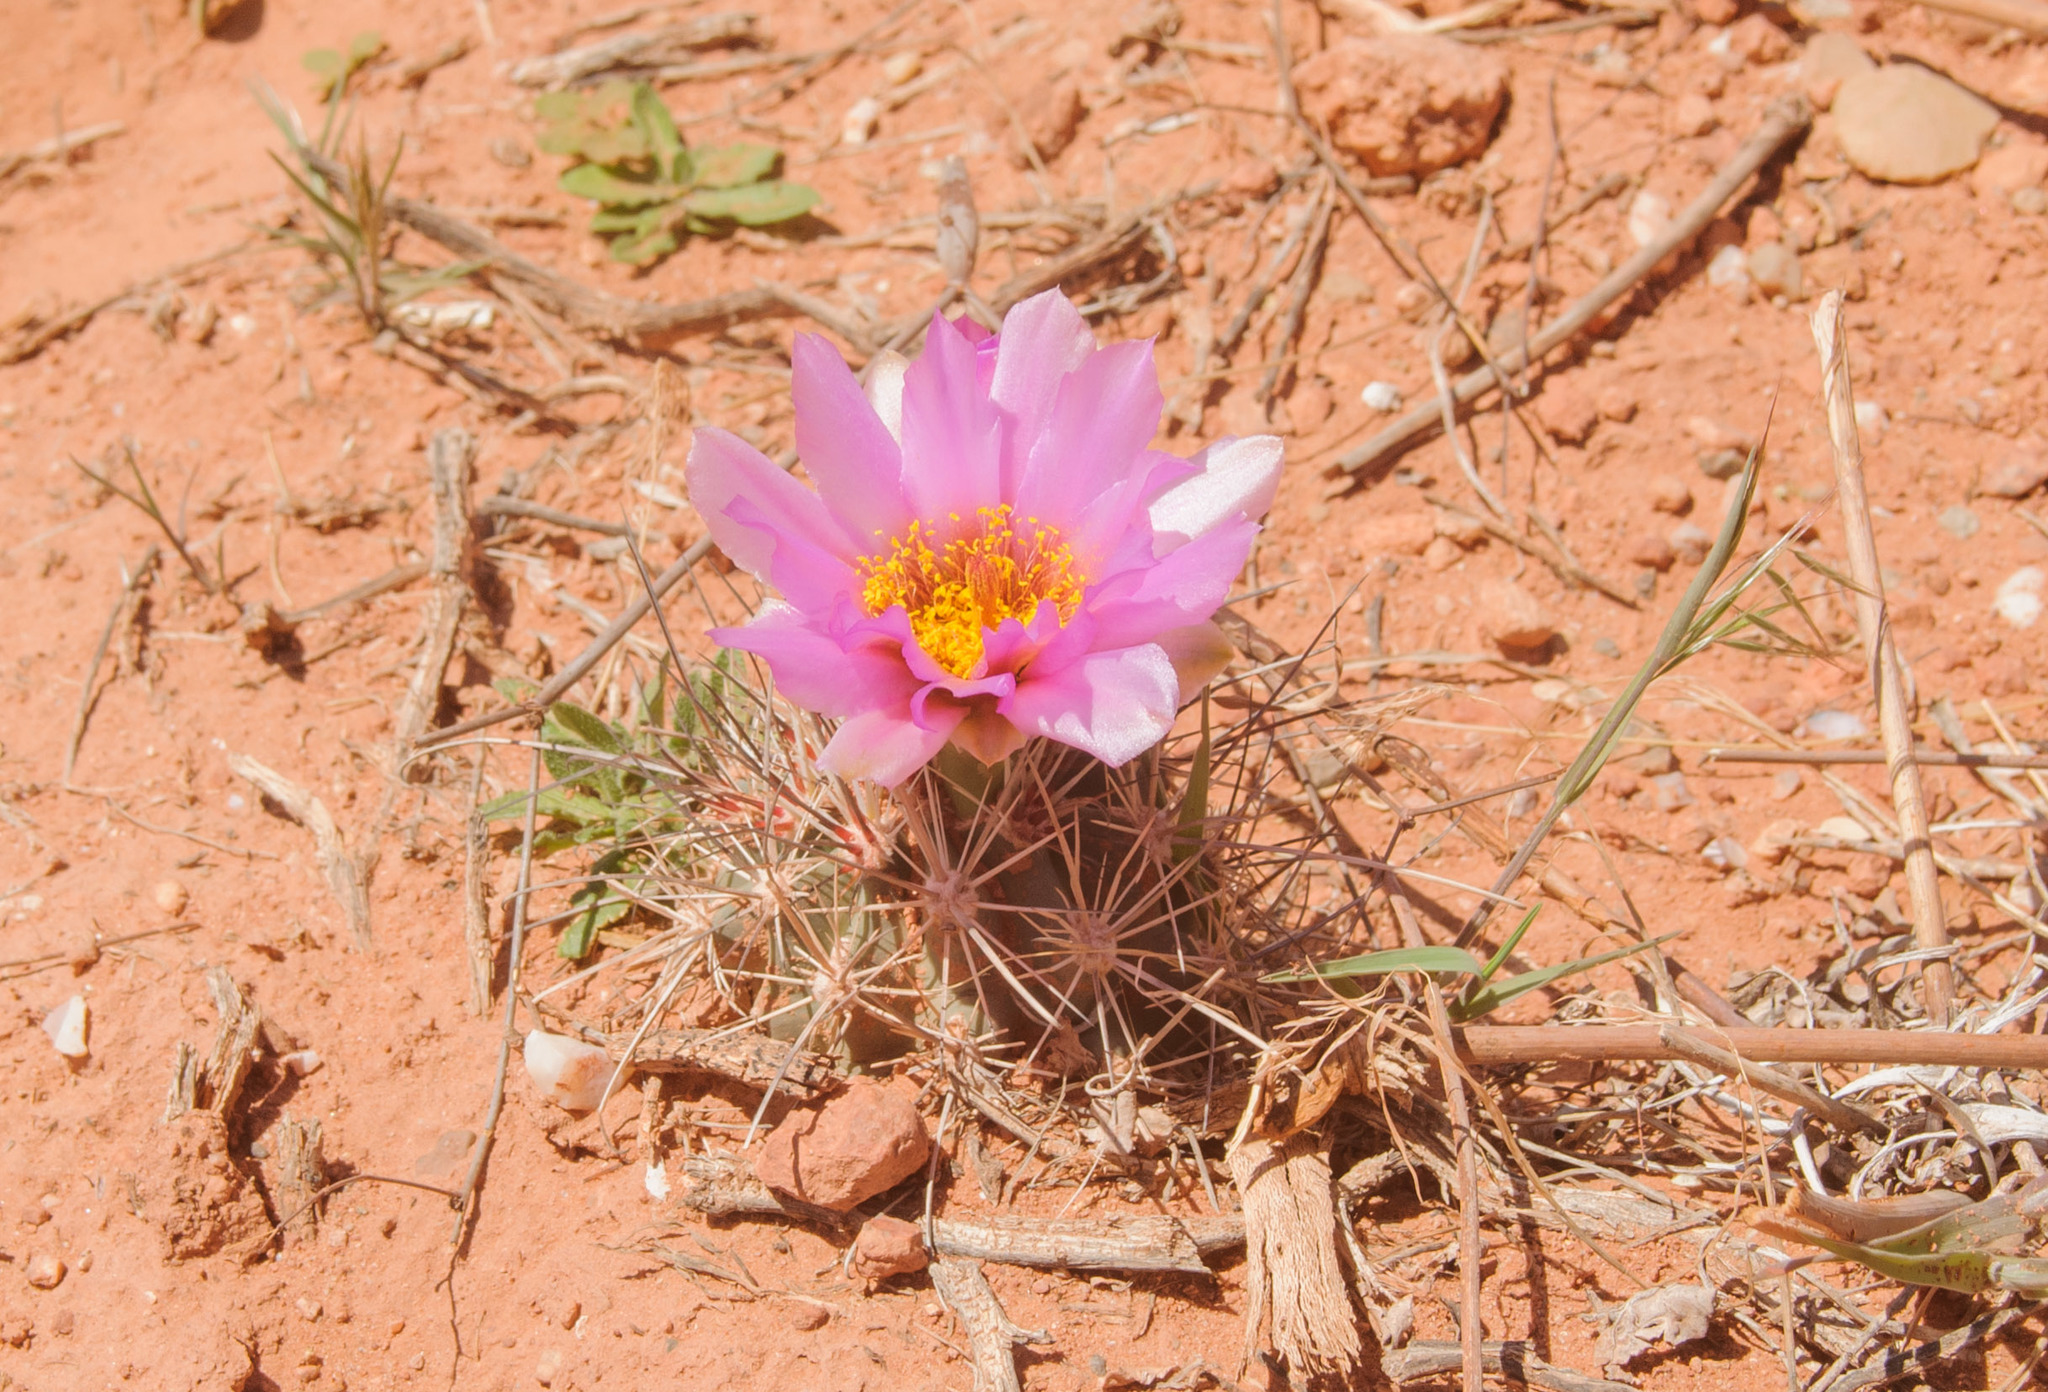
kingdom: Plantae
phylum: Tracheophyta
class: Magnoliopsida
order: Caryophyllales
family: Cactaceae
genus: Sclerocactus
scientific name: Sclerocactus parviflorus
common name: Small-flower fishhook cactus
